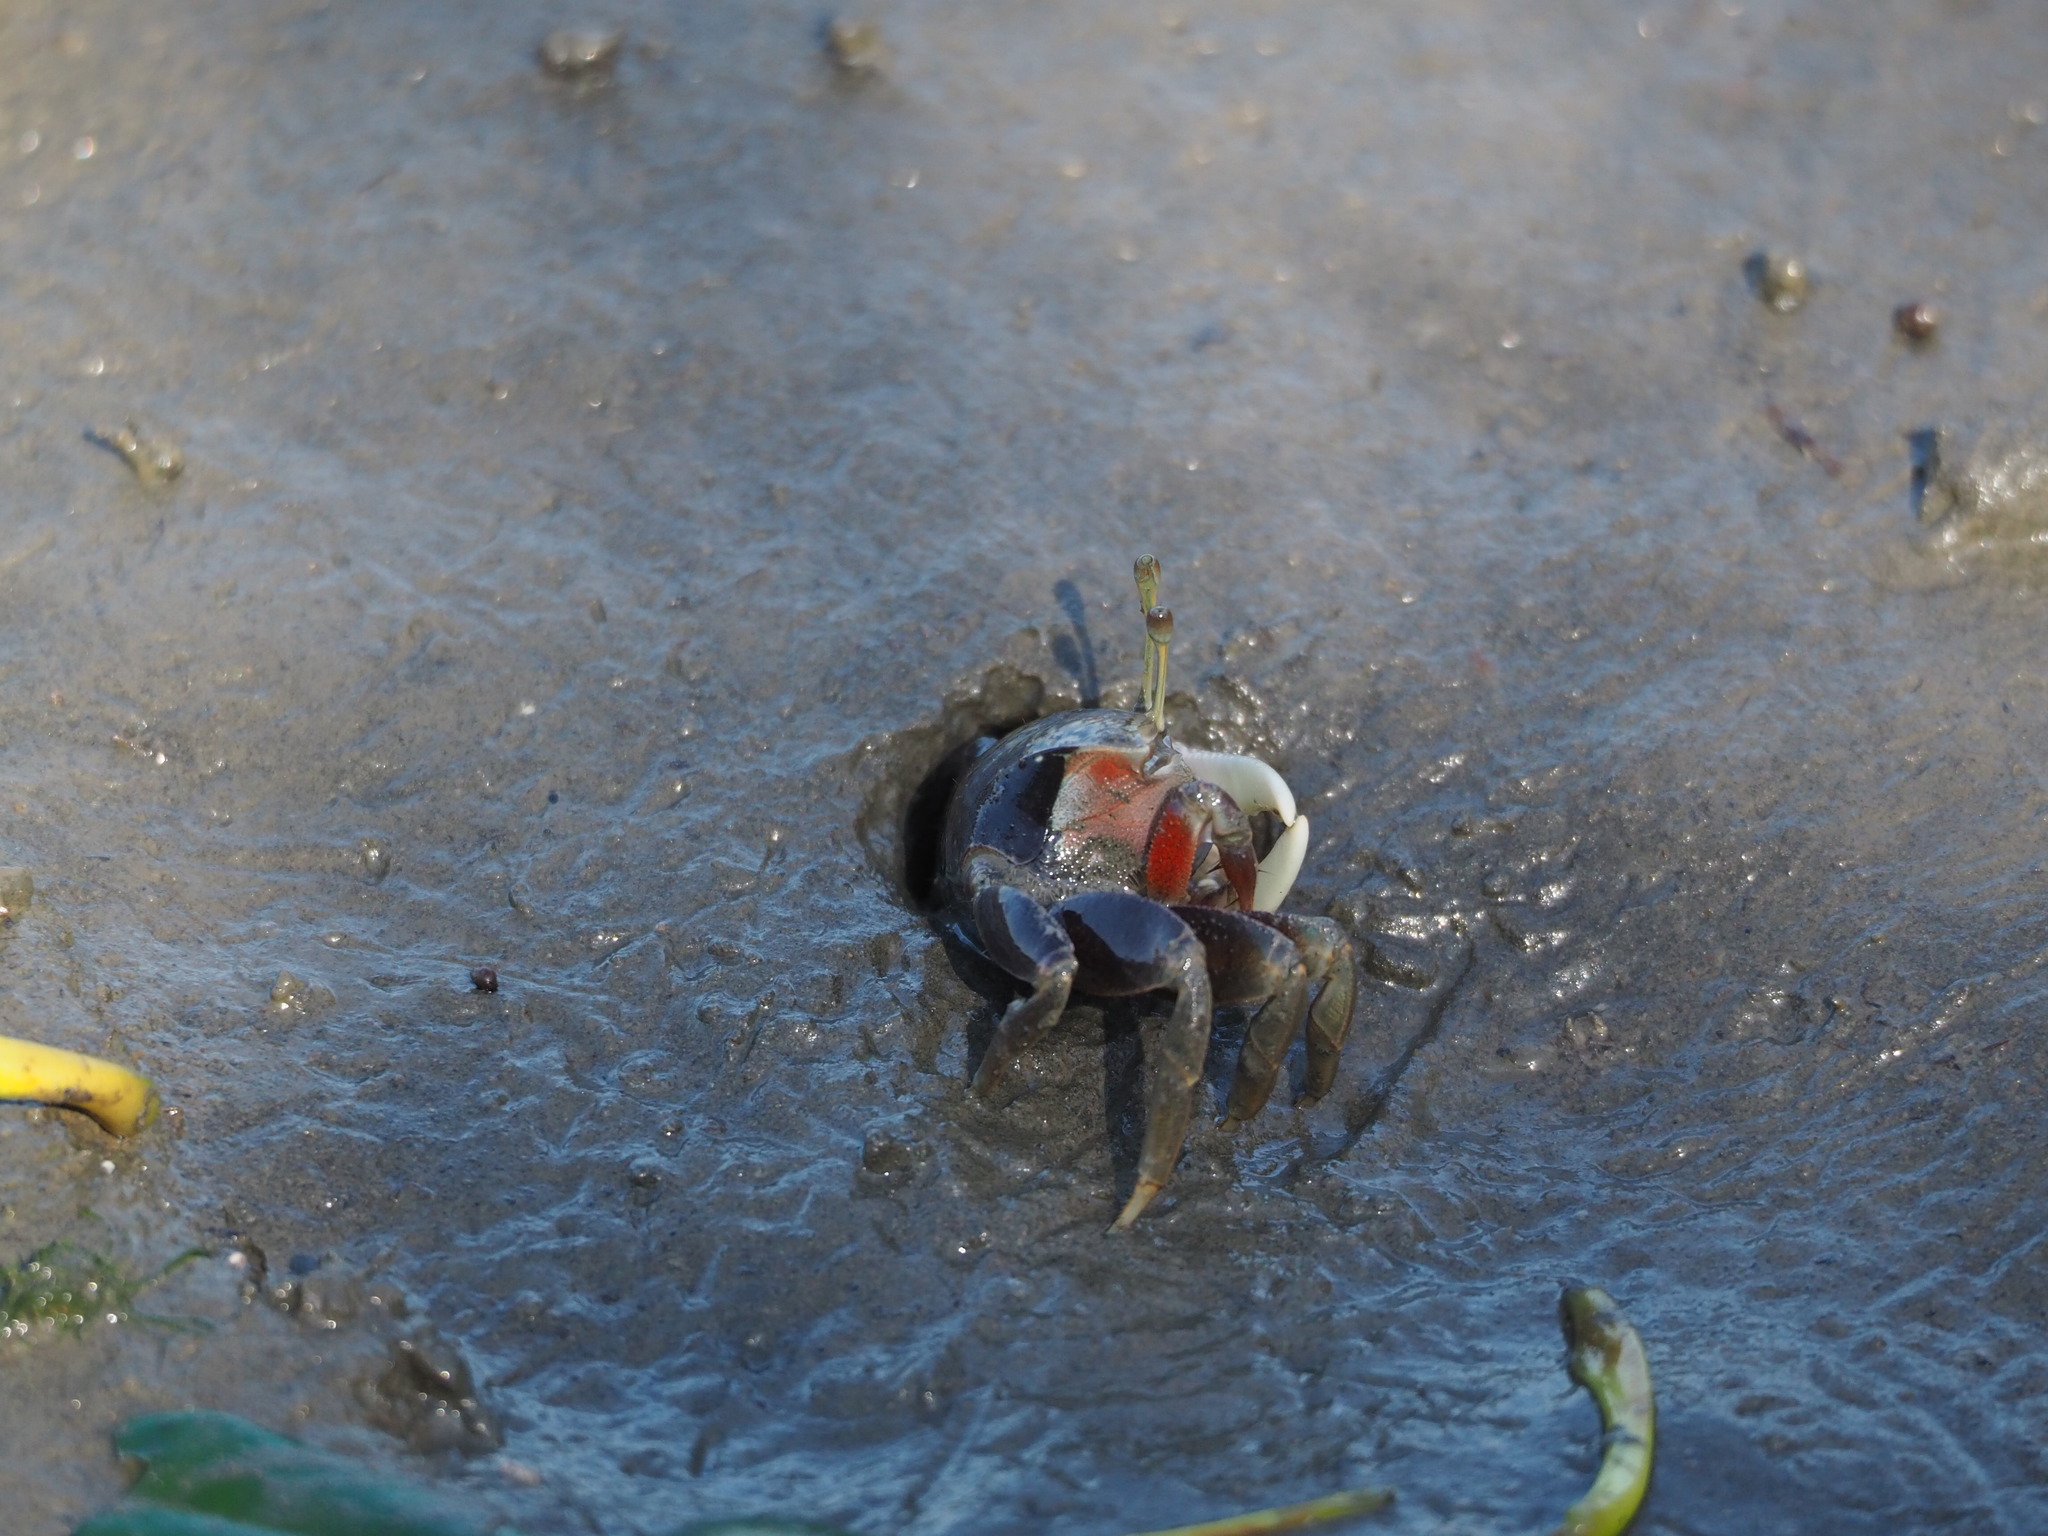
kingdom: Animalia
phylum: Arthropoda
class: Malacostraca
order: Decapoda
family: Ocypodidae
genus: Tubuca
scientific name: Tubuca arcuata
